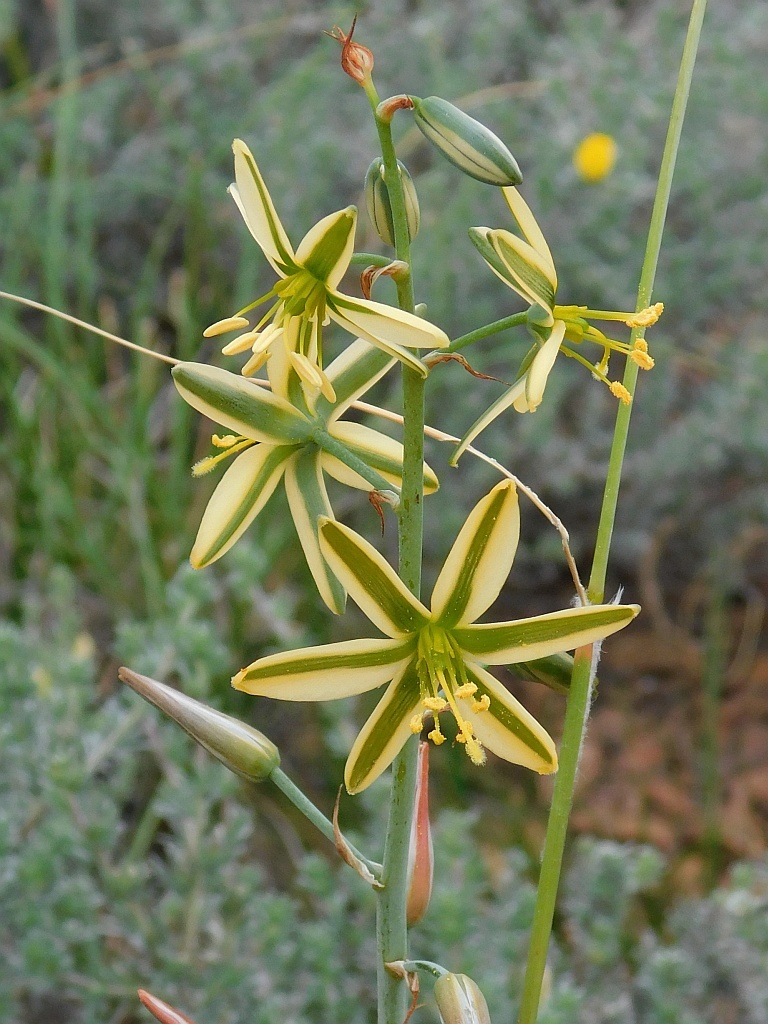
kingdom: Plantae
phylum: Tracheophyta
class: Liliopsida
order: Asparagales
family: Asparagaceae
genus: Albuca
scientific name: Albuca suaveolens
